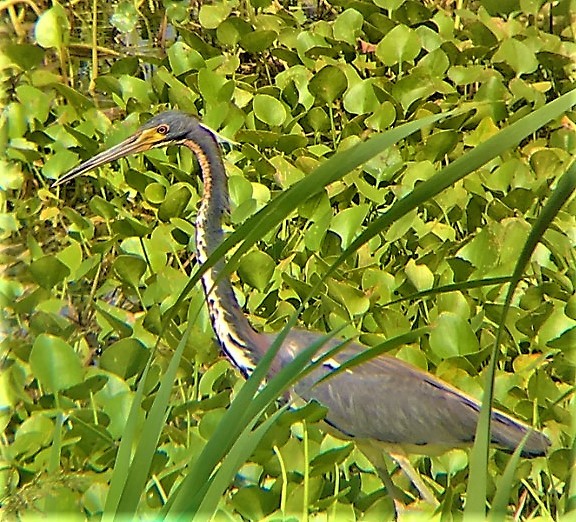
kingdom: Animalia
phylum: Chordata
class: Aves
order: Pelecaniformes
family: Ardeidae
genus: Egretta
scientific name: Egretta tricolor
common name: Tricolored heron
